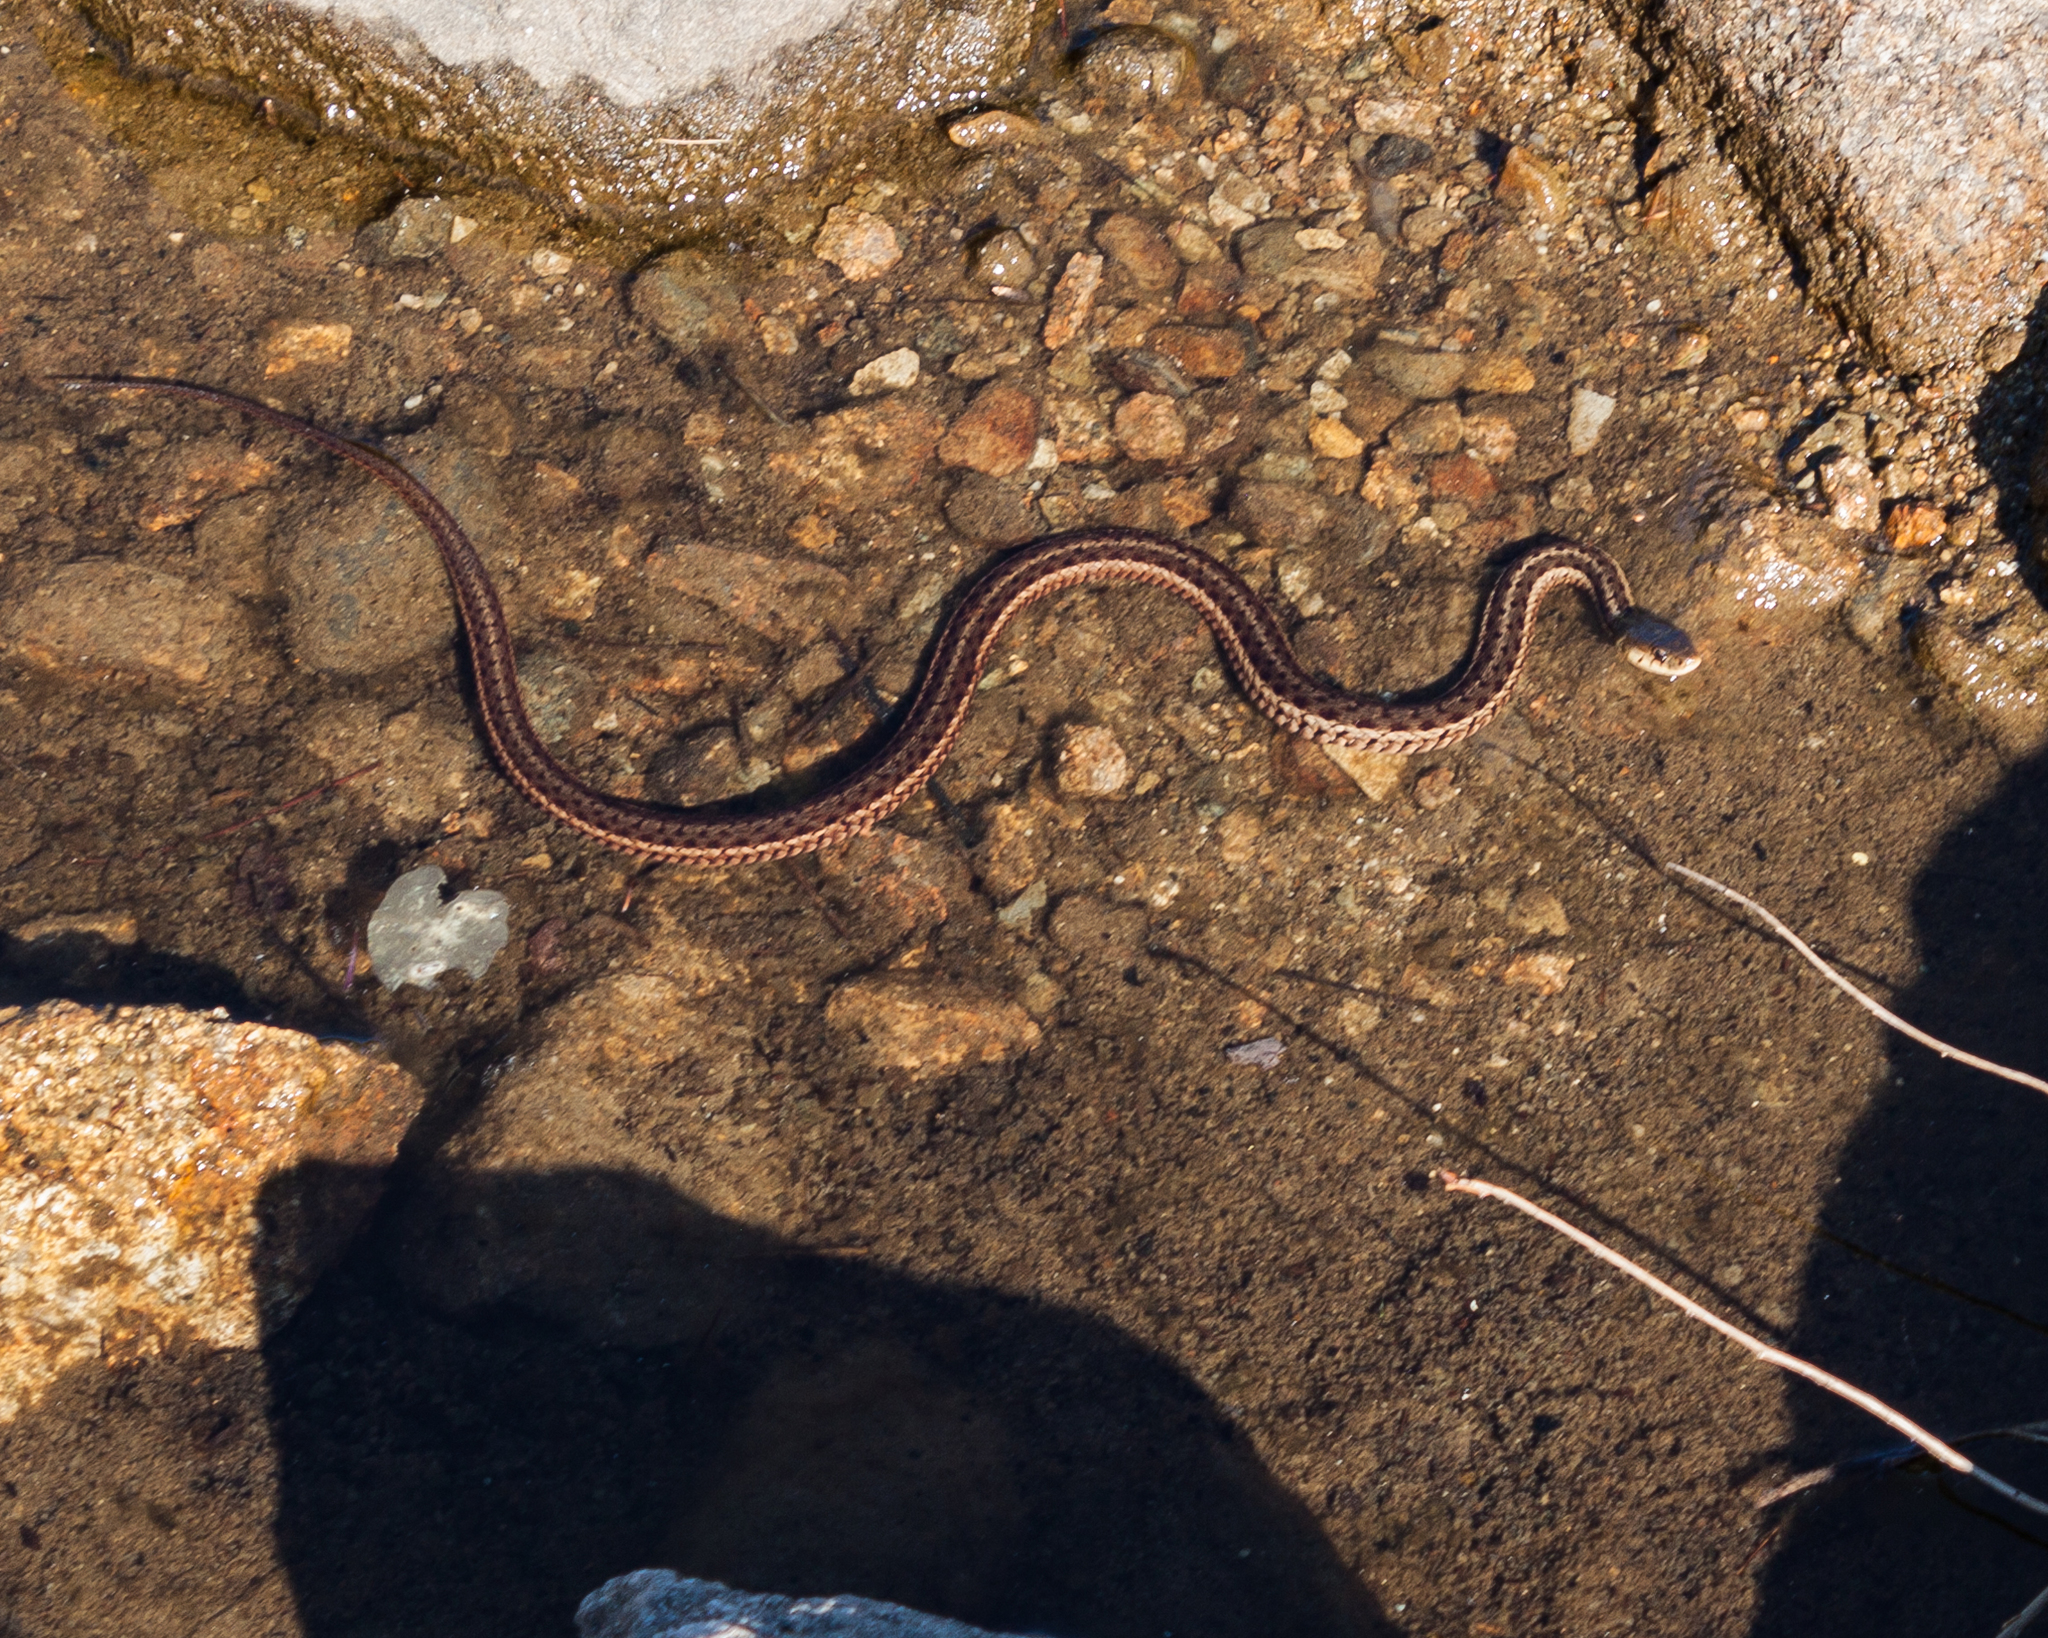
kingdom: Animalia
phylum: Chordata
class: Squamata
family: Colubridae
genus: Thamnophis
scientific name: Thamnophis sirtalis
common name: Common garter snake
